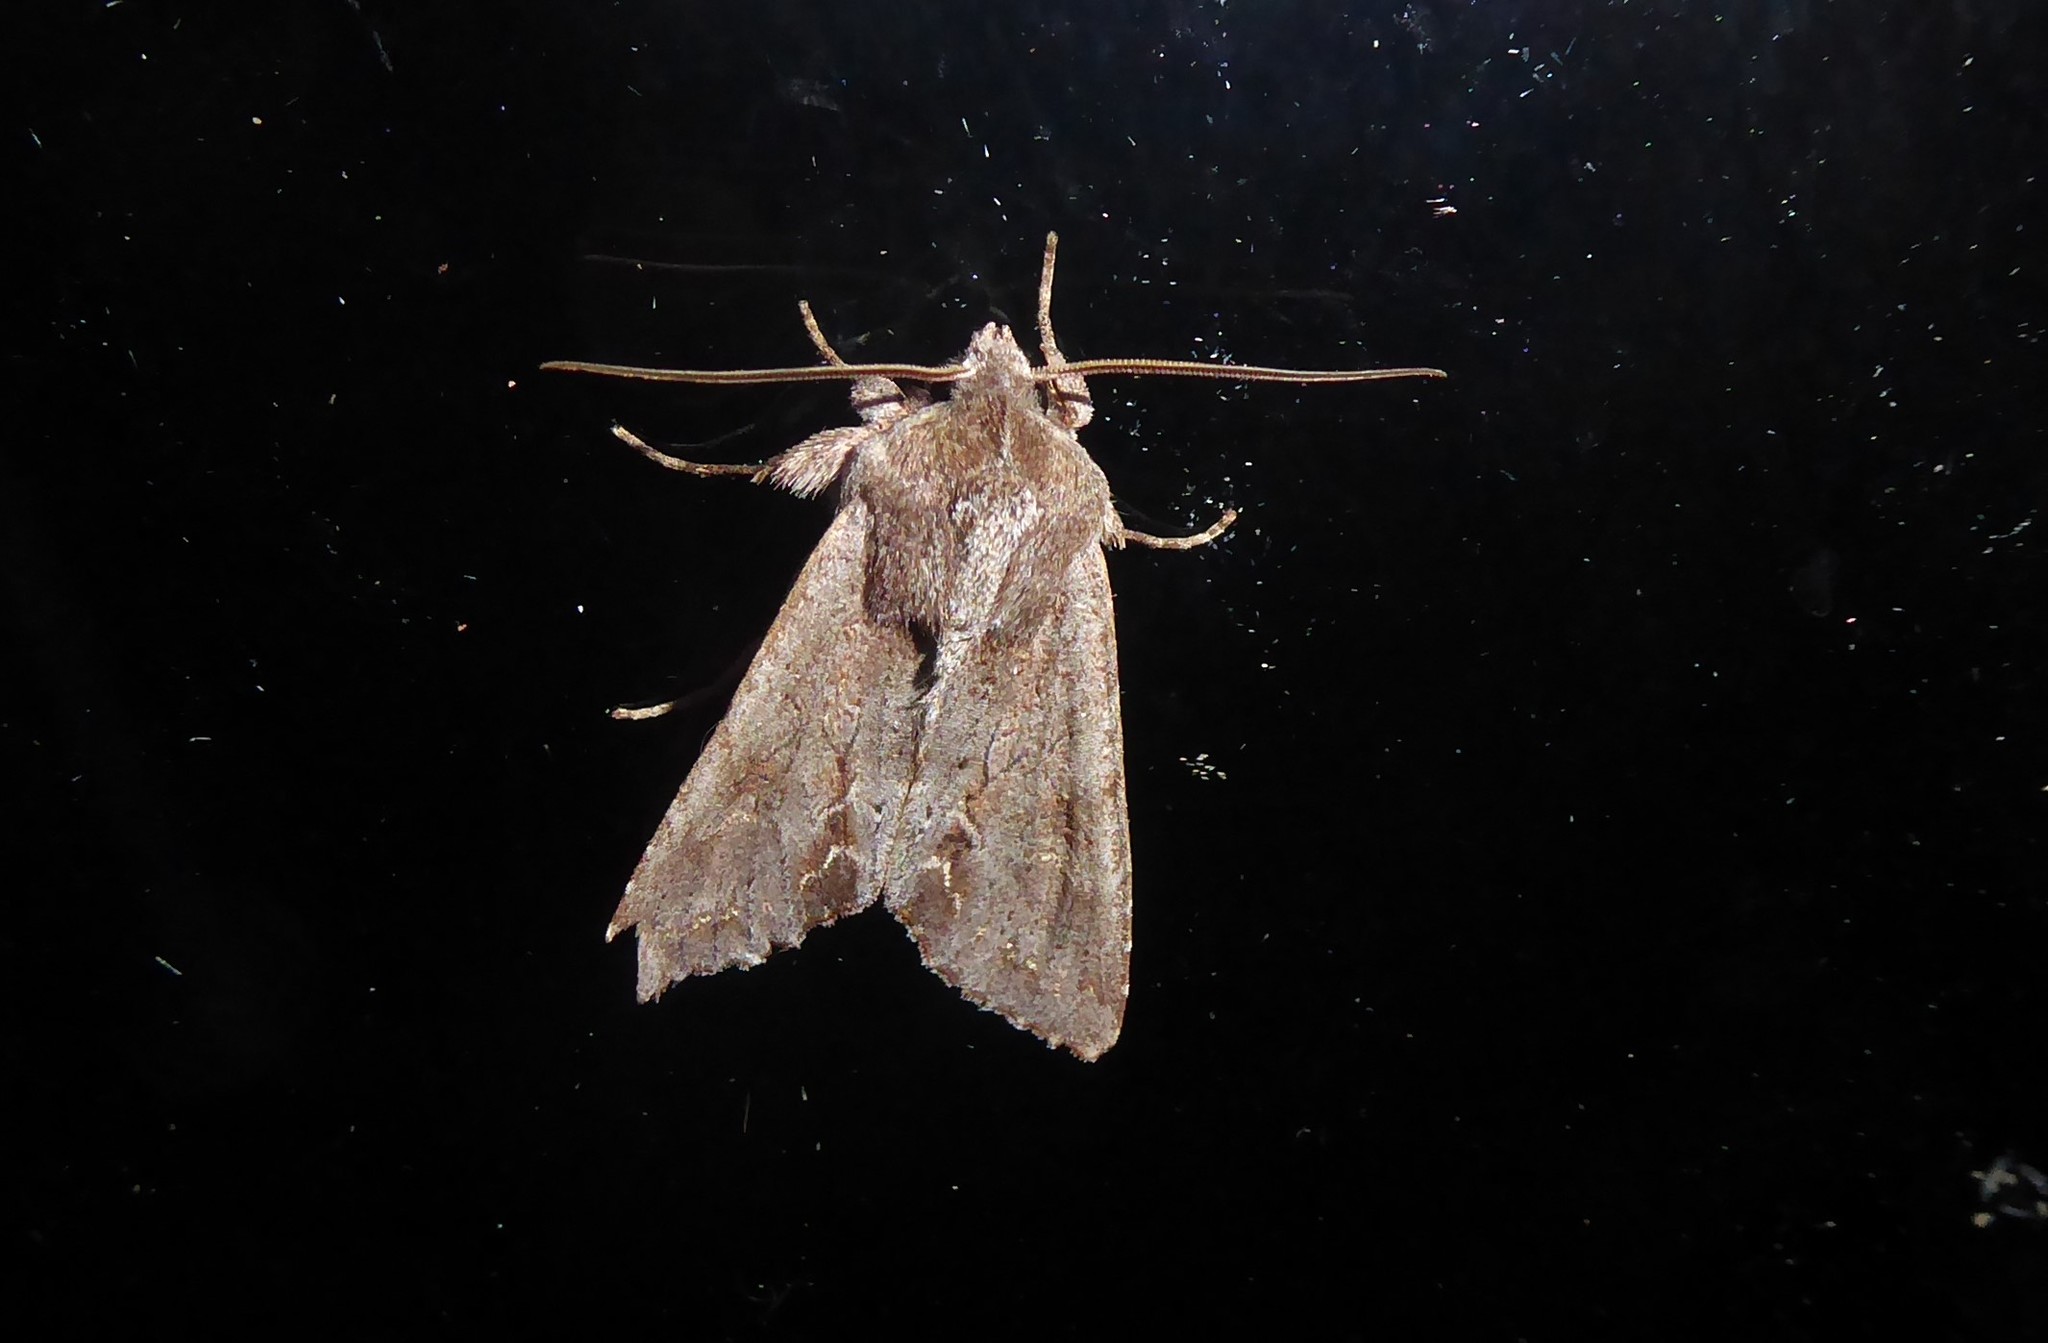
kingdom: Animalia
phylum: Arthropoda
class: Insecta
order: Lepidoptera
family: Noctuidae
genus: Ichneutica
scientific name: Ichneutica
